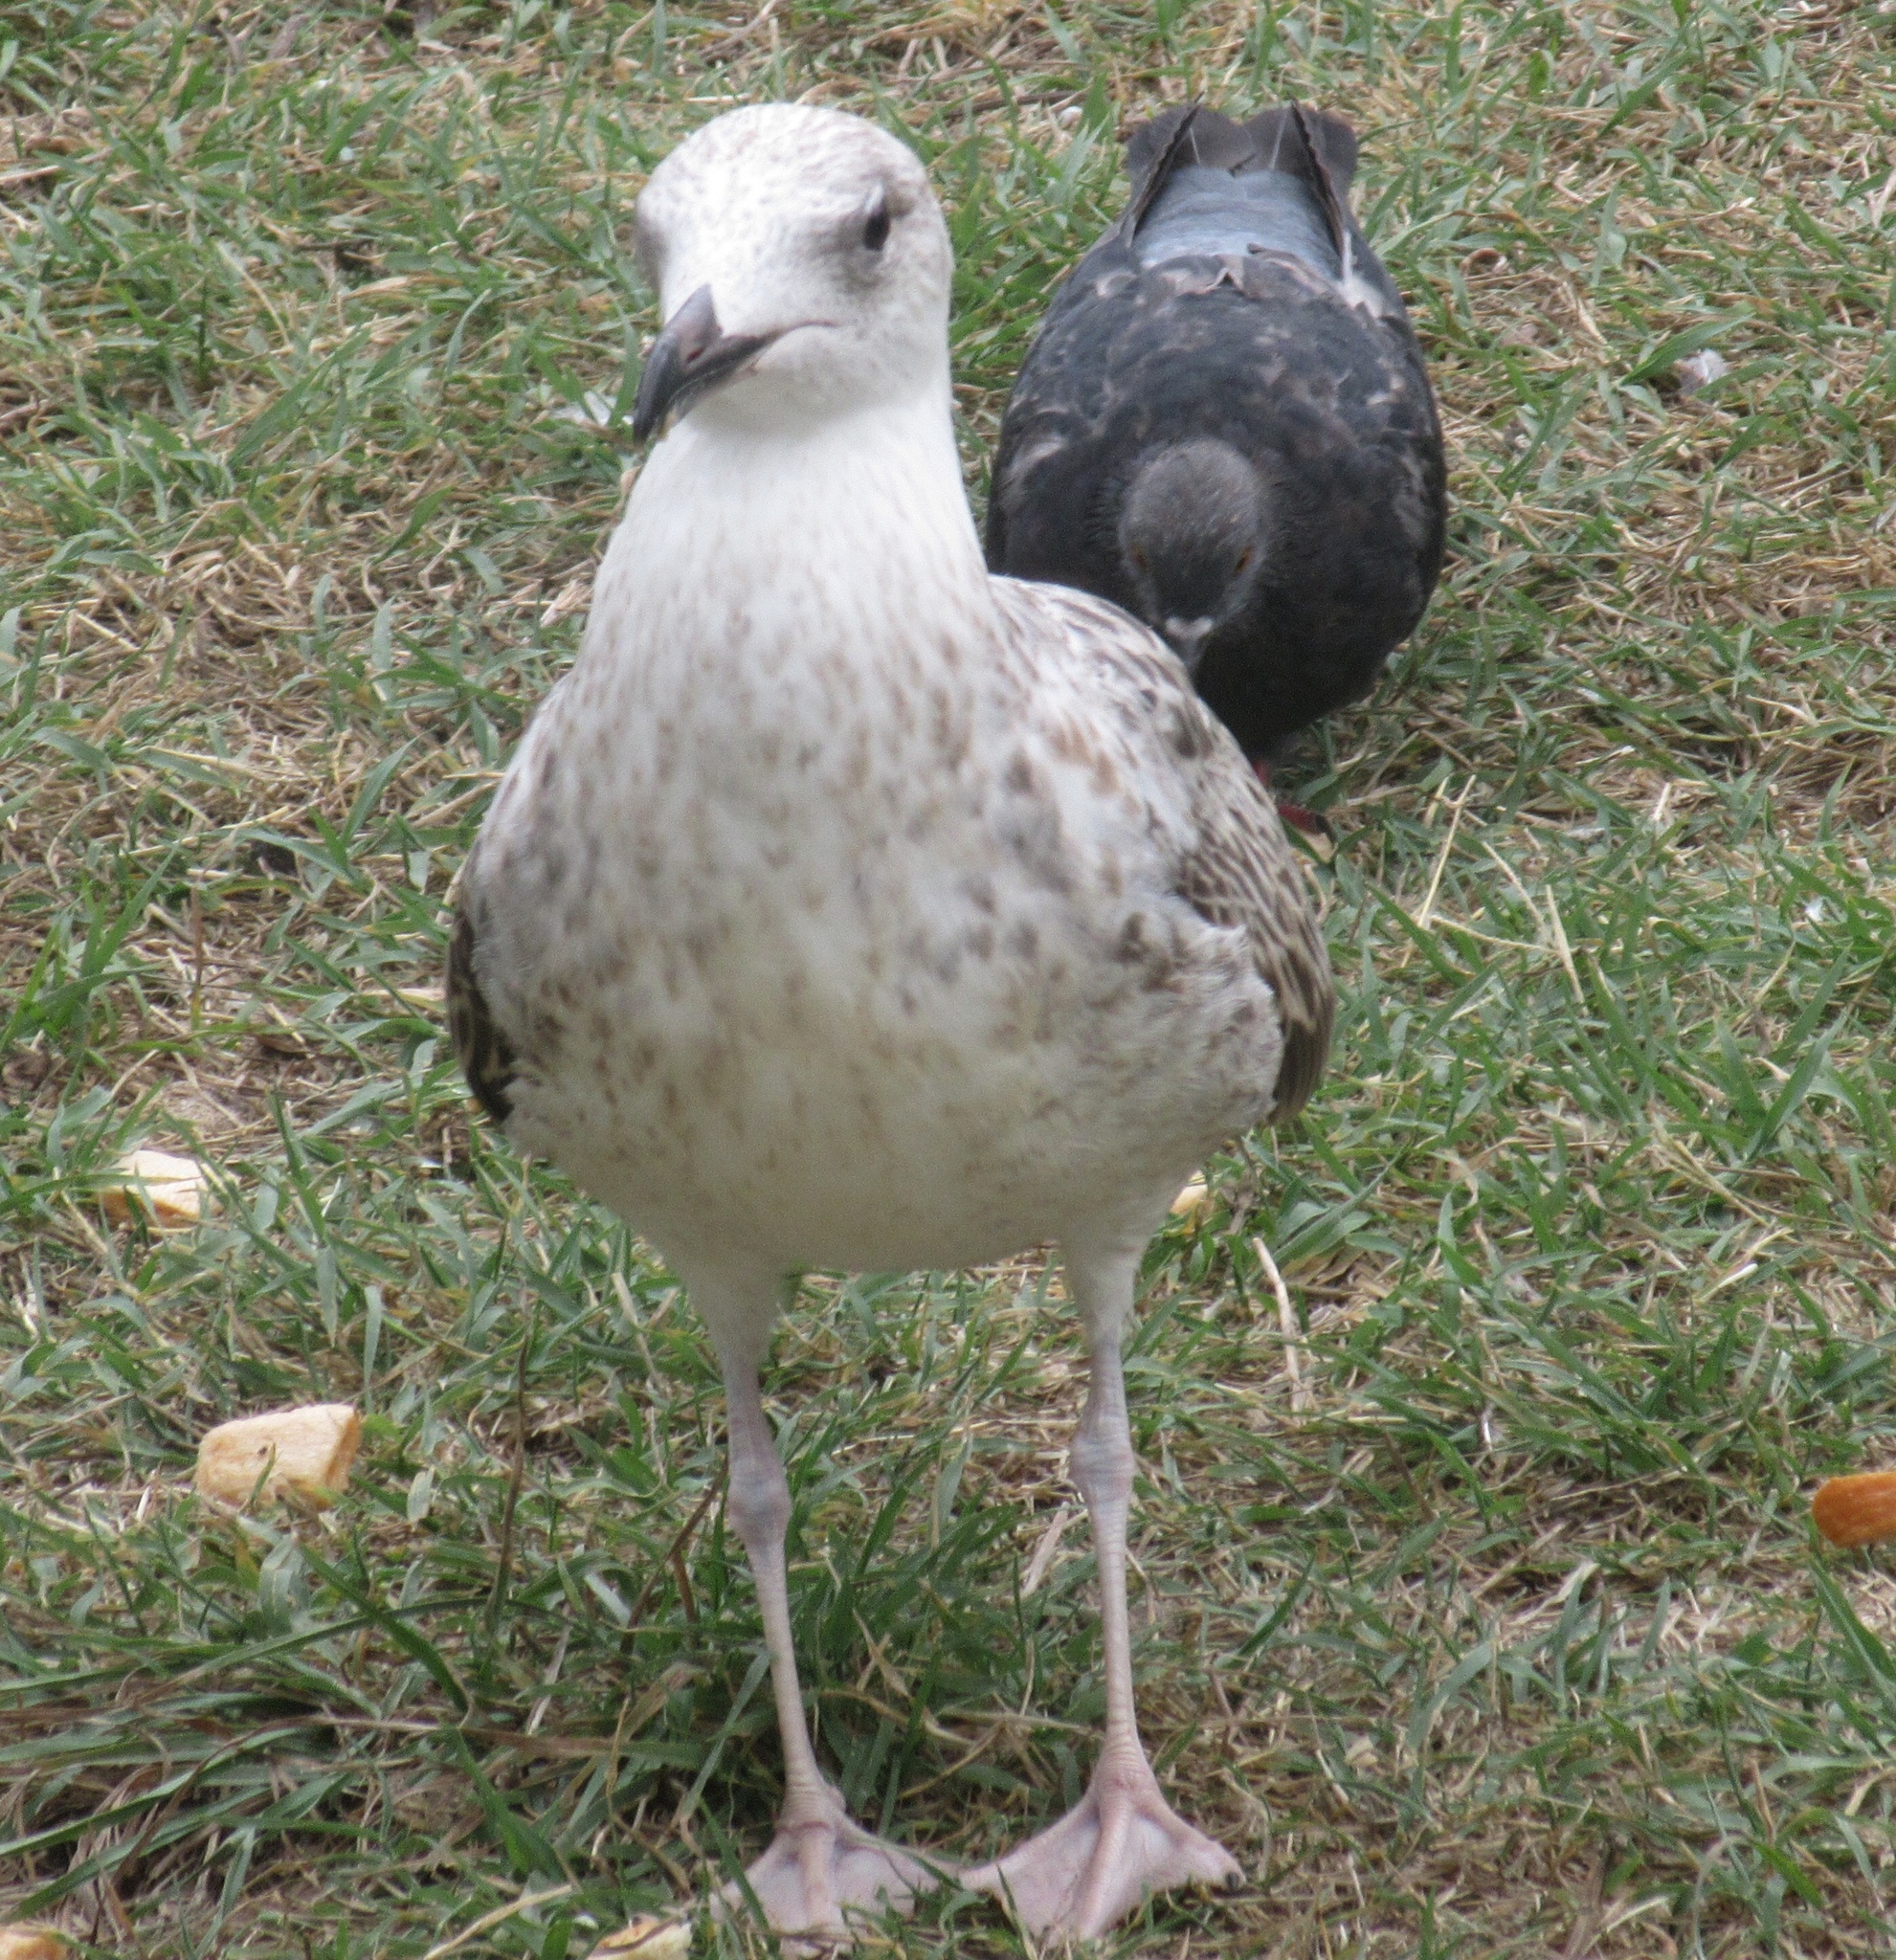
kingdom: Animalia
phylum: Chordata
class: Aves
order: Charadriiformes
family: Laridae
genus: Larus
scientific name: Larus michahellis
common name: Yellow-legged gull
